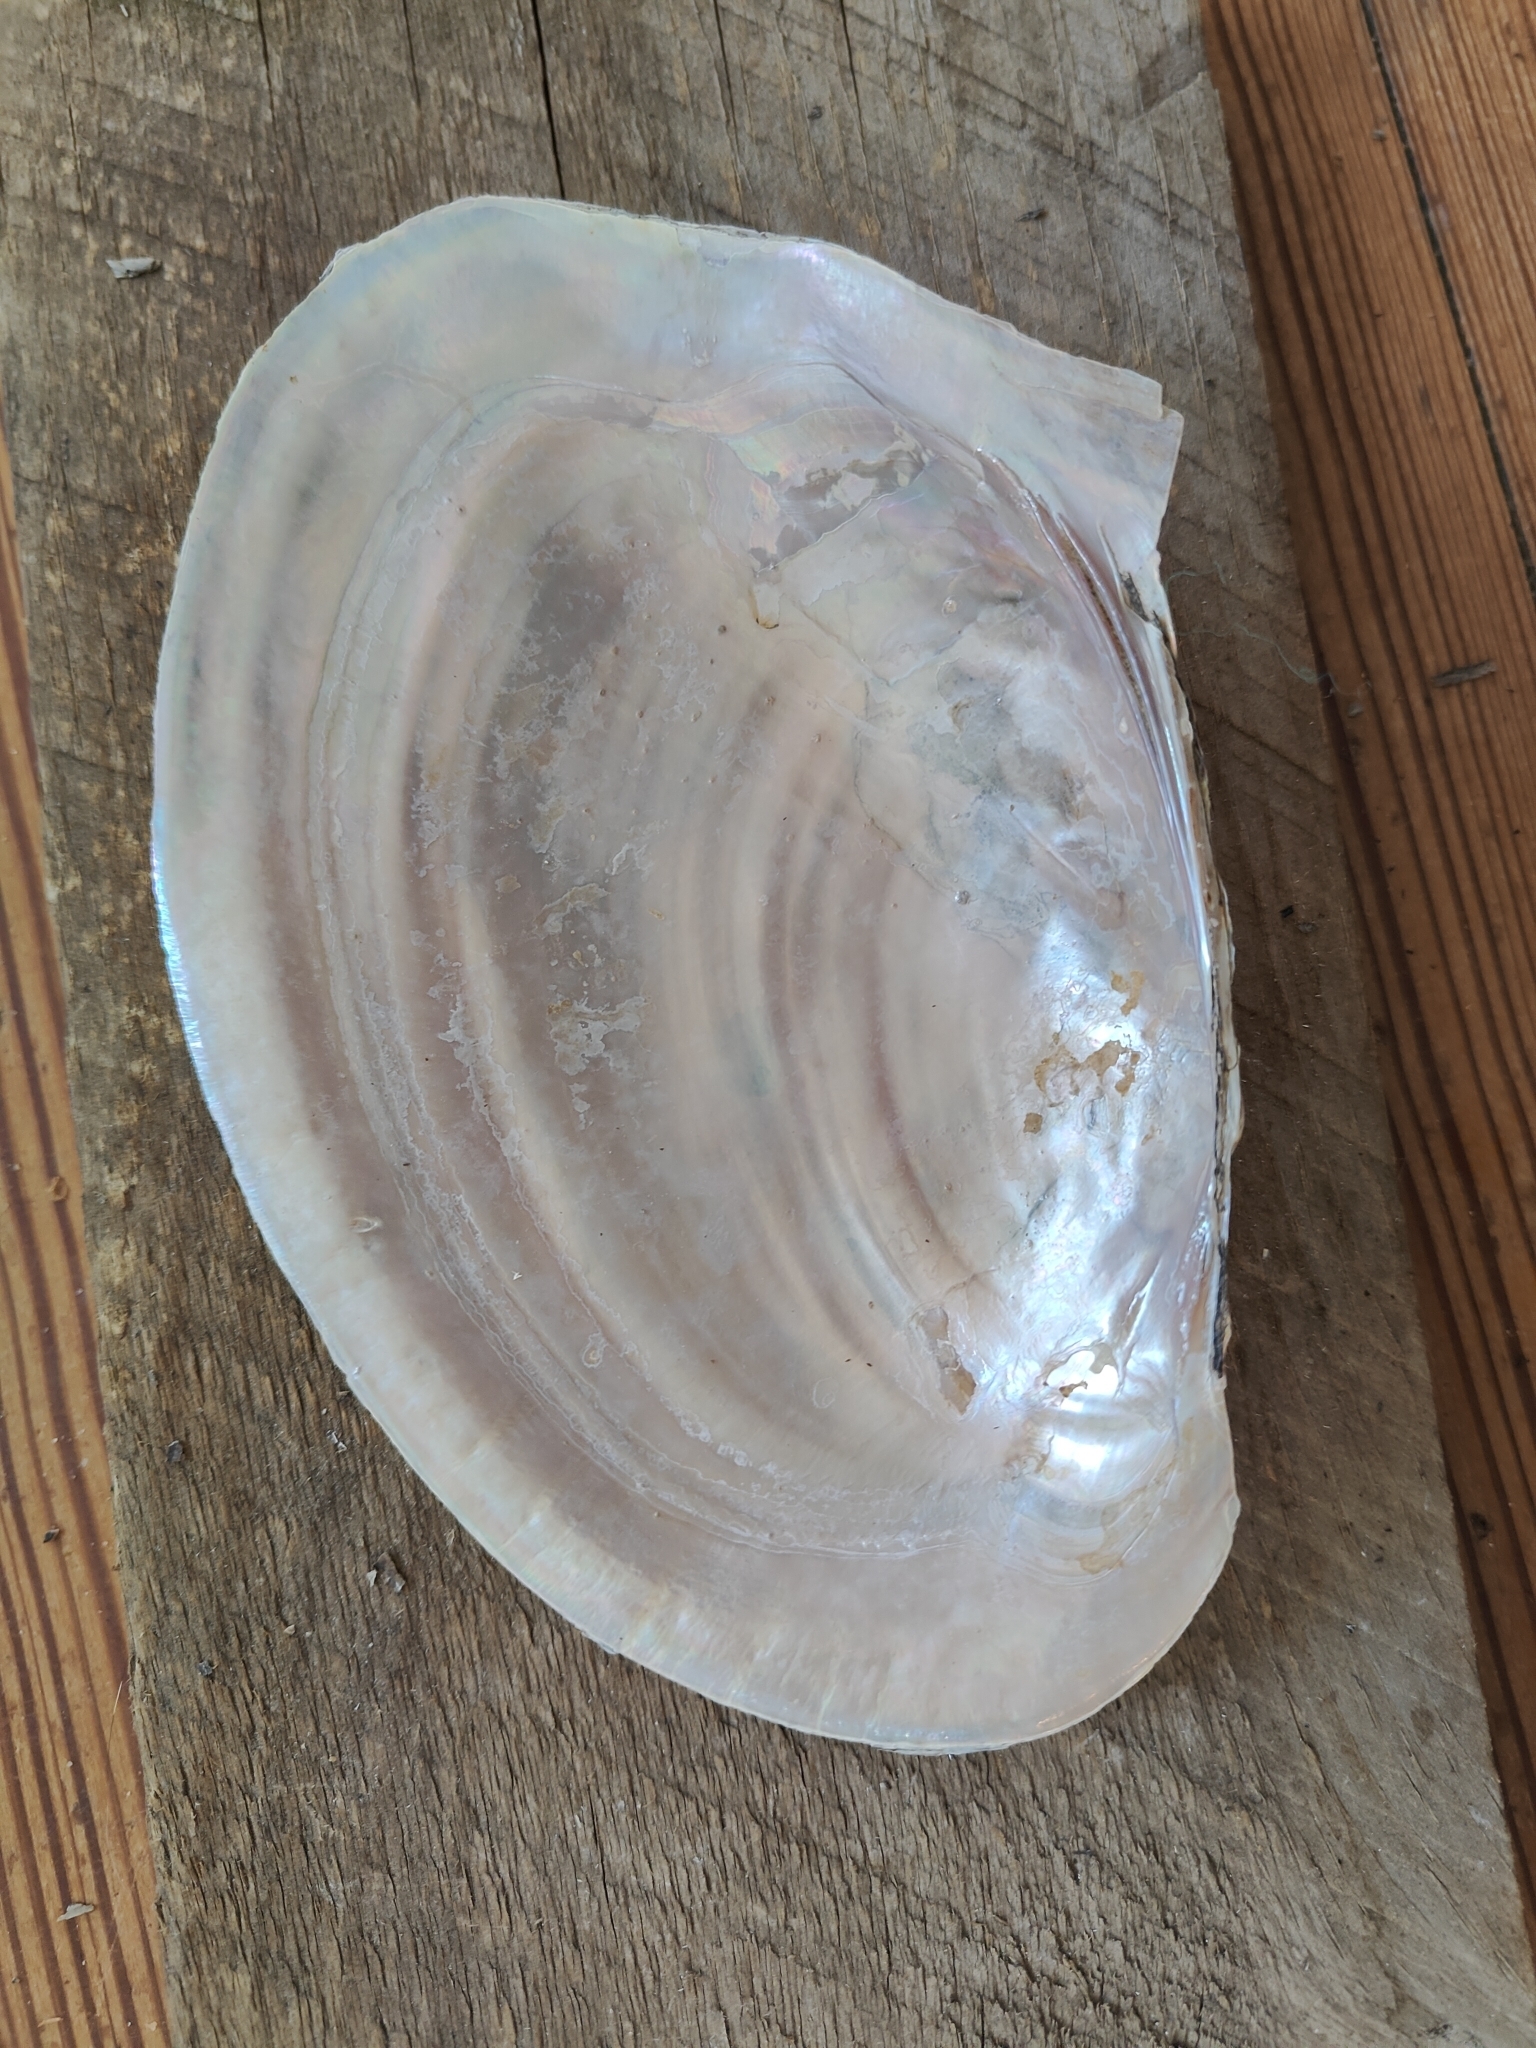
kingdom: Animalia
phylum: Mollusca
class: Bivalvia
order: Unionida
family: Unionidae
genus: Potamilus
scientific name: Potamilus ohiensis
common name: Pink papershell
